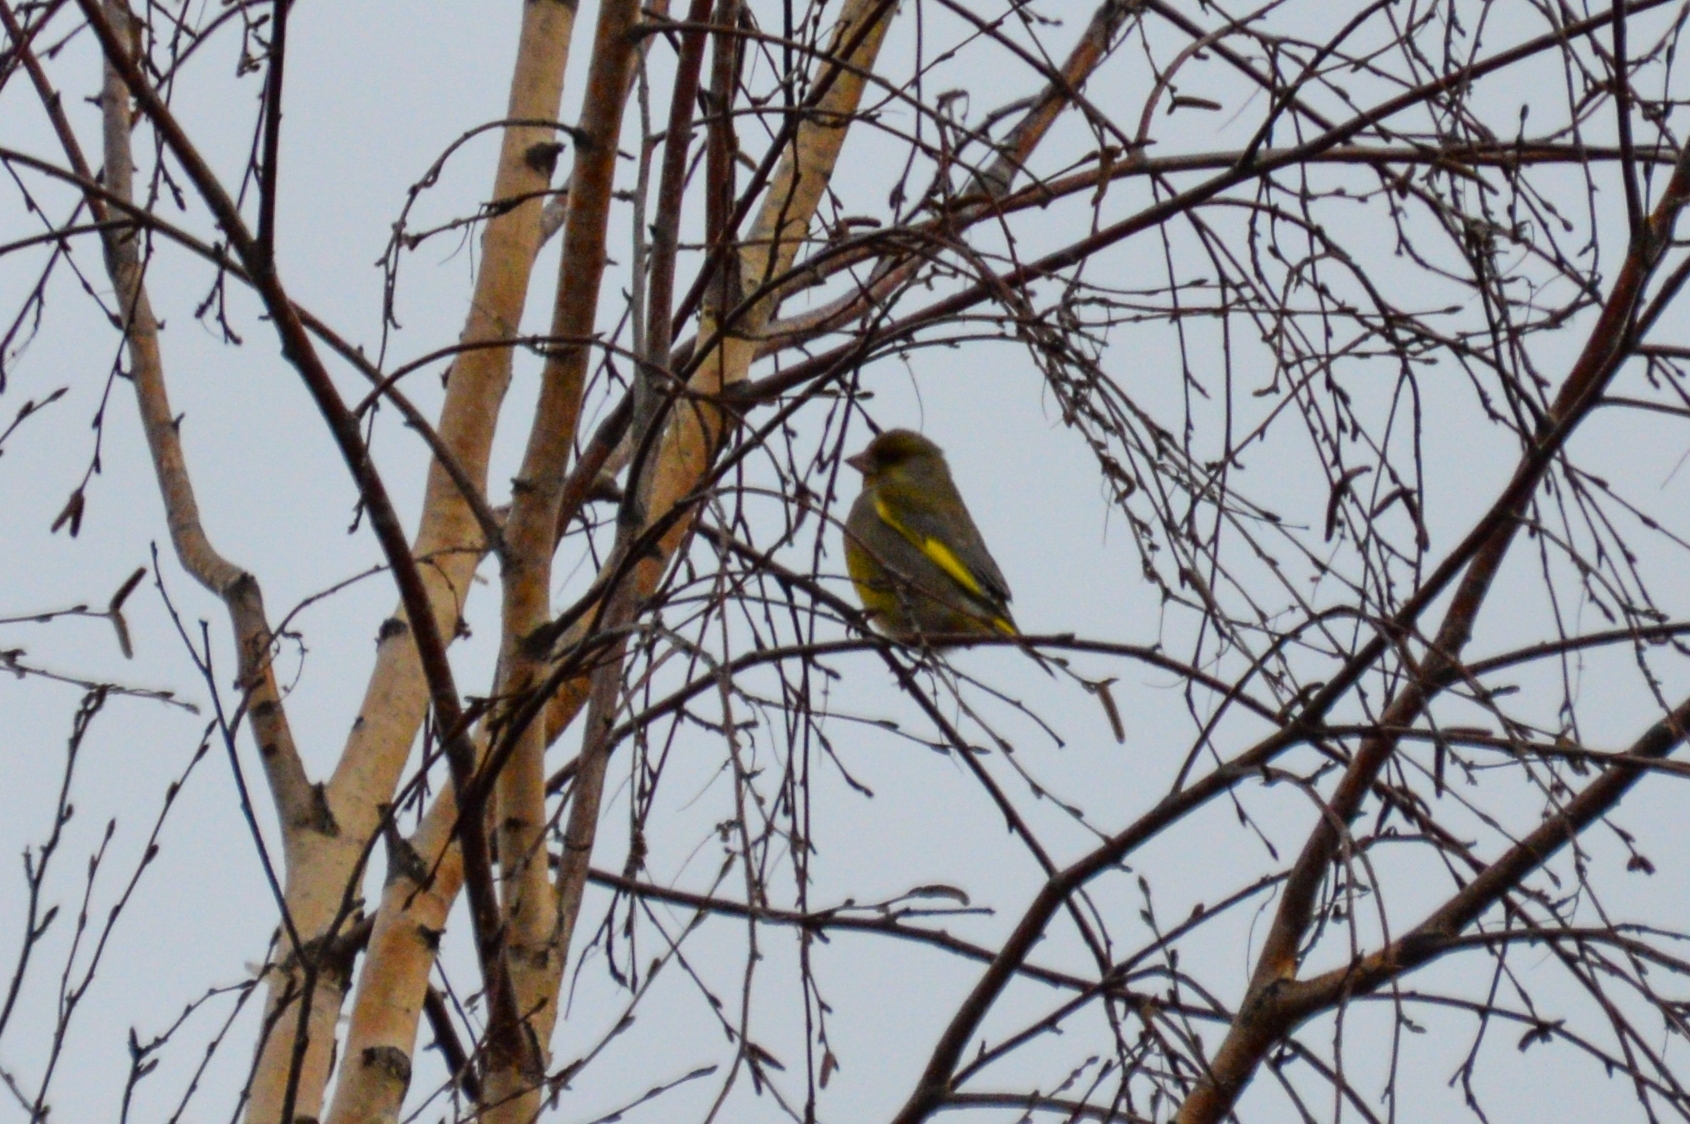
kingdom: Plantae
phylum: Tracheophyta
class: Liliopsida
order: Poales
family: Poaceae
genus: Chloris
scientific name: Chloris chloris
